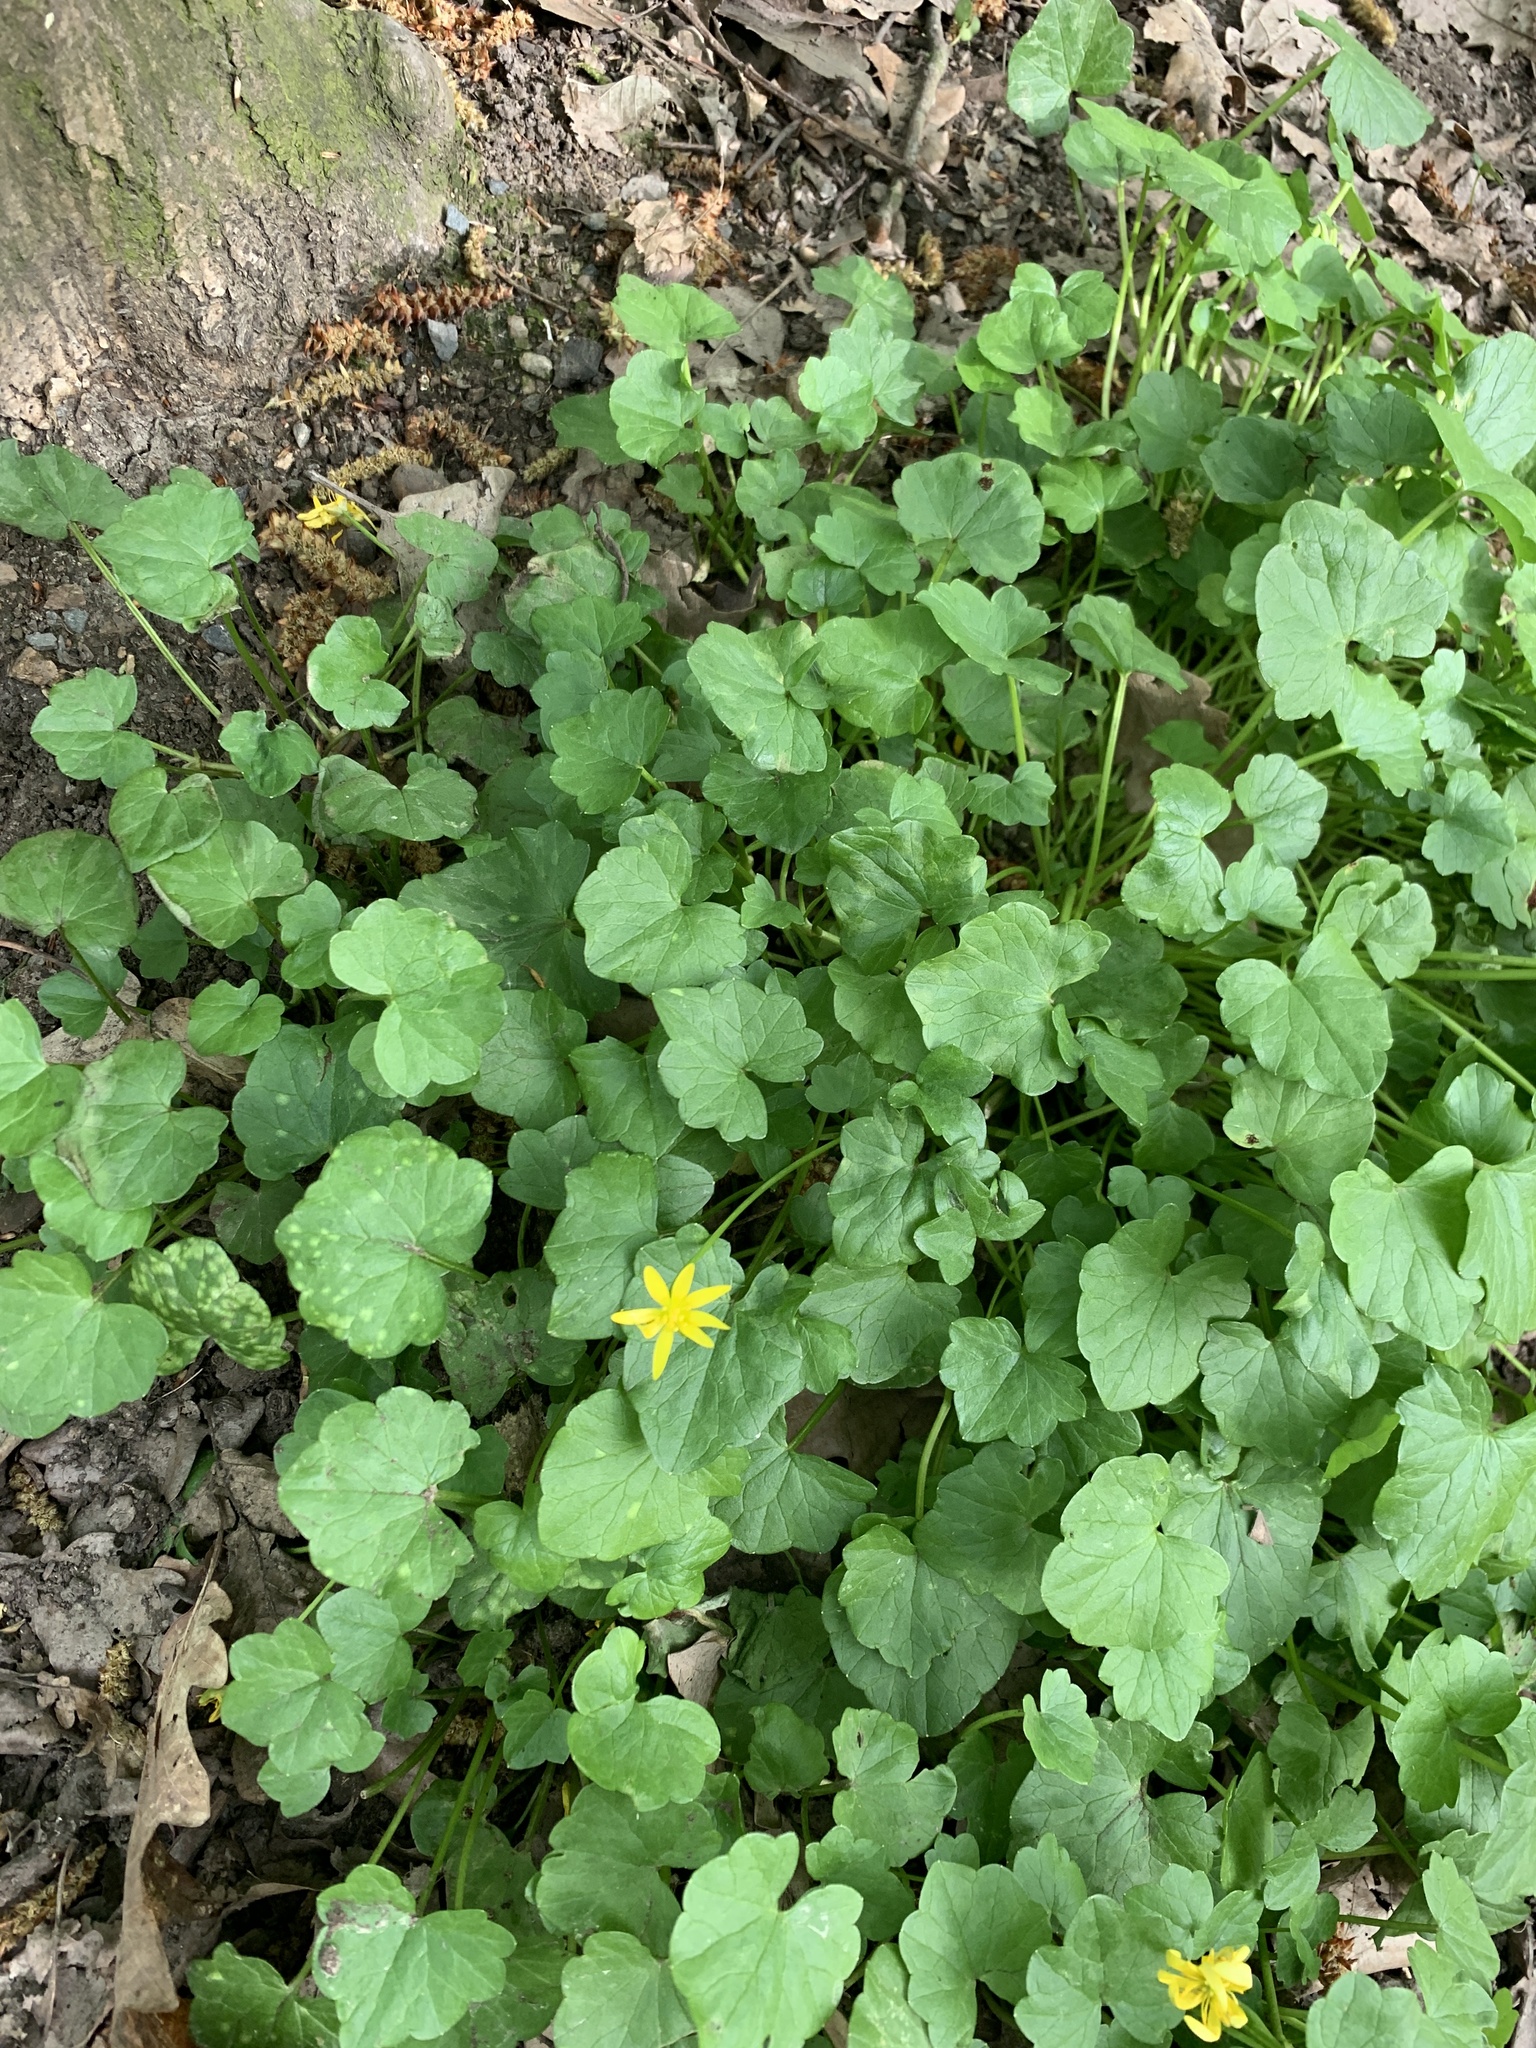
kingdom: Plantae
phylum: Tracheophyta
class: Magnoliopsida
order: Ranunculales
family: Ranunculaceae
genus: Ficaria
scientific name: Ficaria verna
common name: Lesser celandine
